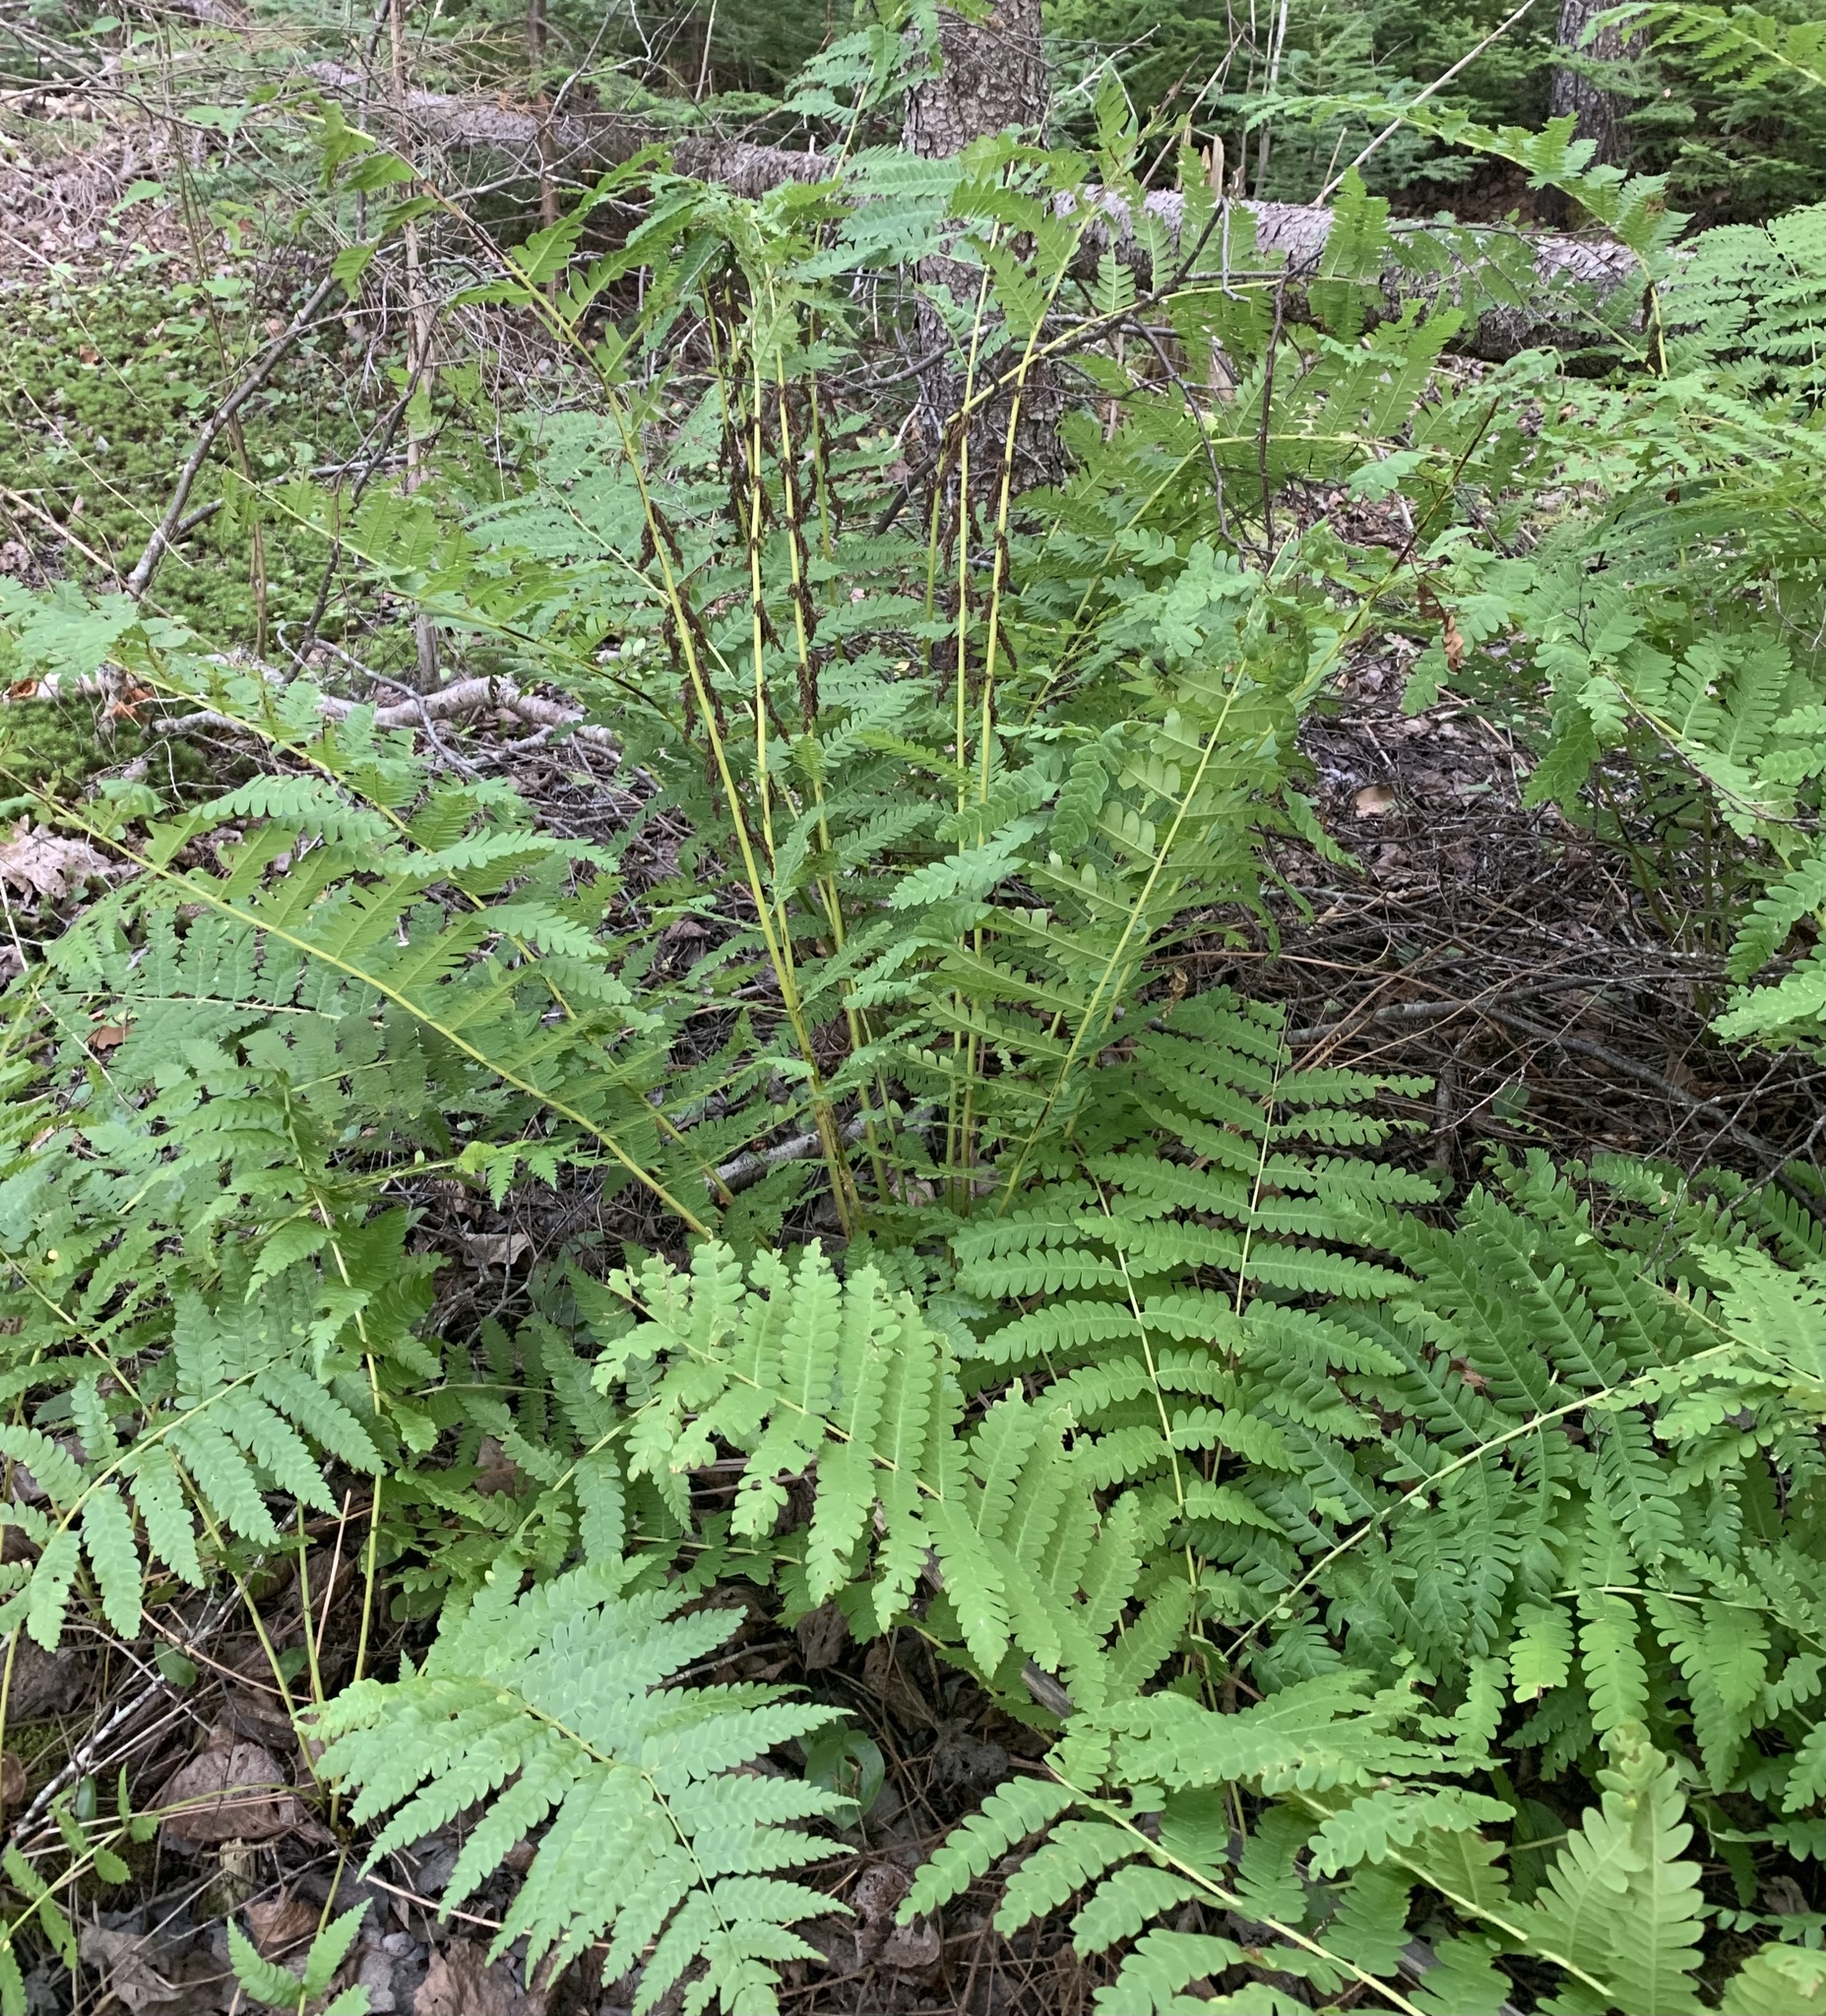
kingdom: Plantae
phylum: Tracheophyta
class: Polypodiopsida
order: Osmundales
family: Osmundaceae
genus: Claytosmunda
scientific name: Claytosmunda claytoniana
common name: Clayton's fern
